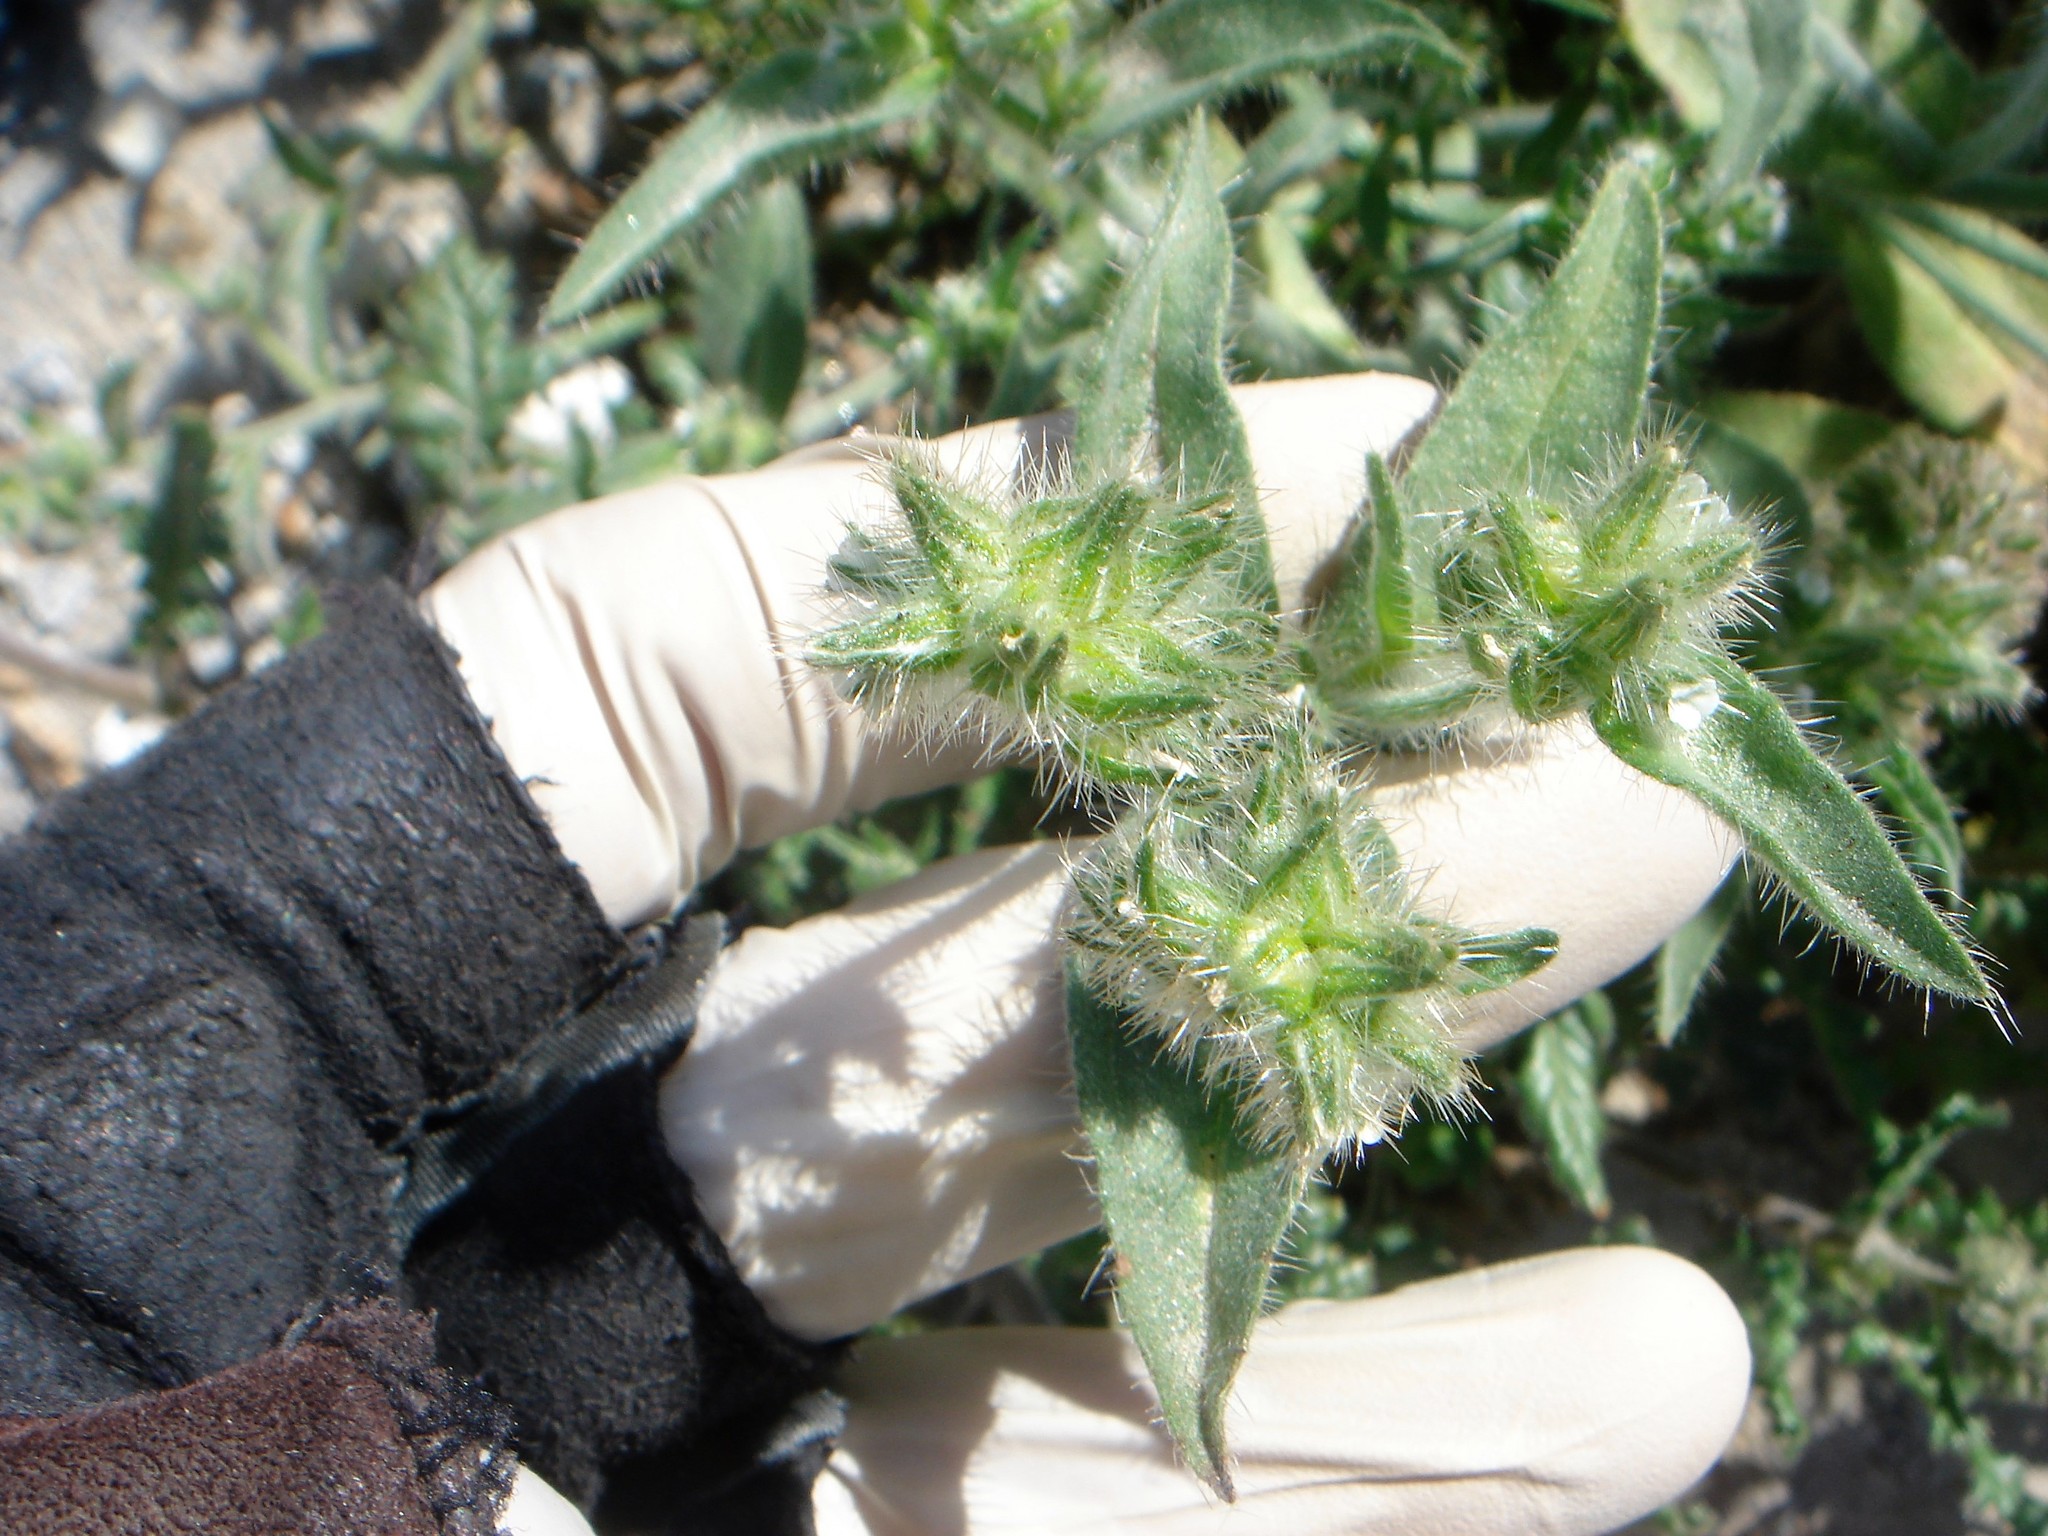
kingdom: Plantae
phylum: Tracheophyta
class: Magnoliopsida
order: Boraginales
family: Boraginaceae
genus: Simpsonanthus
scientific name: Simpsonanthus jonesii
